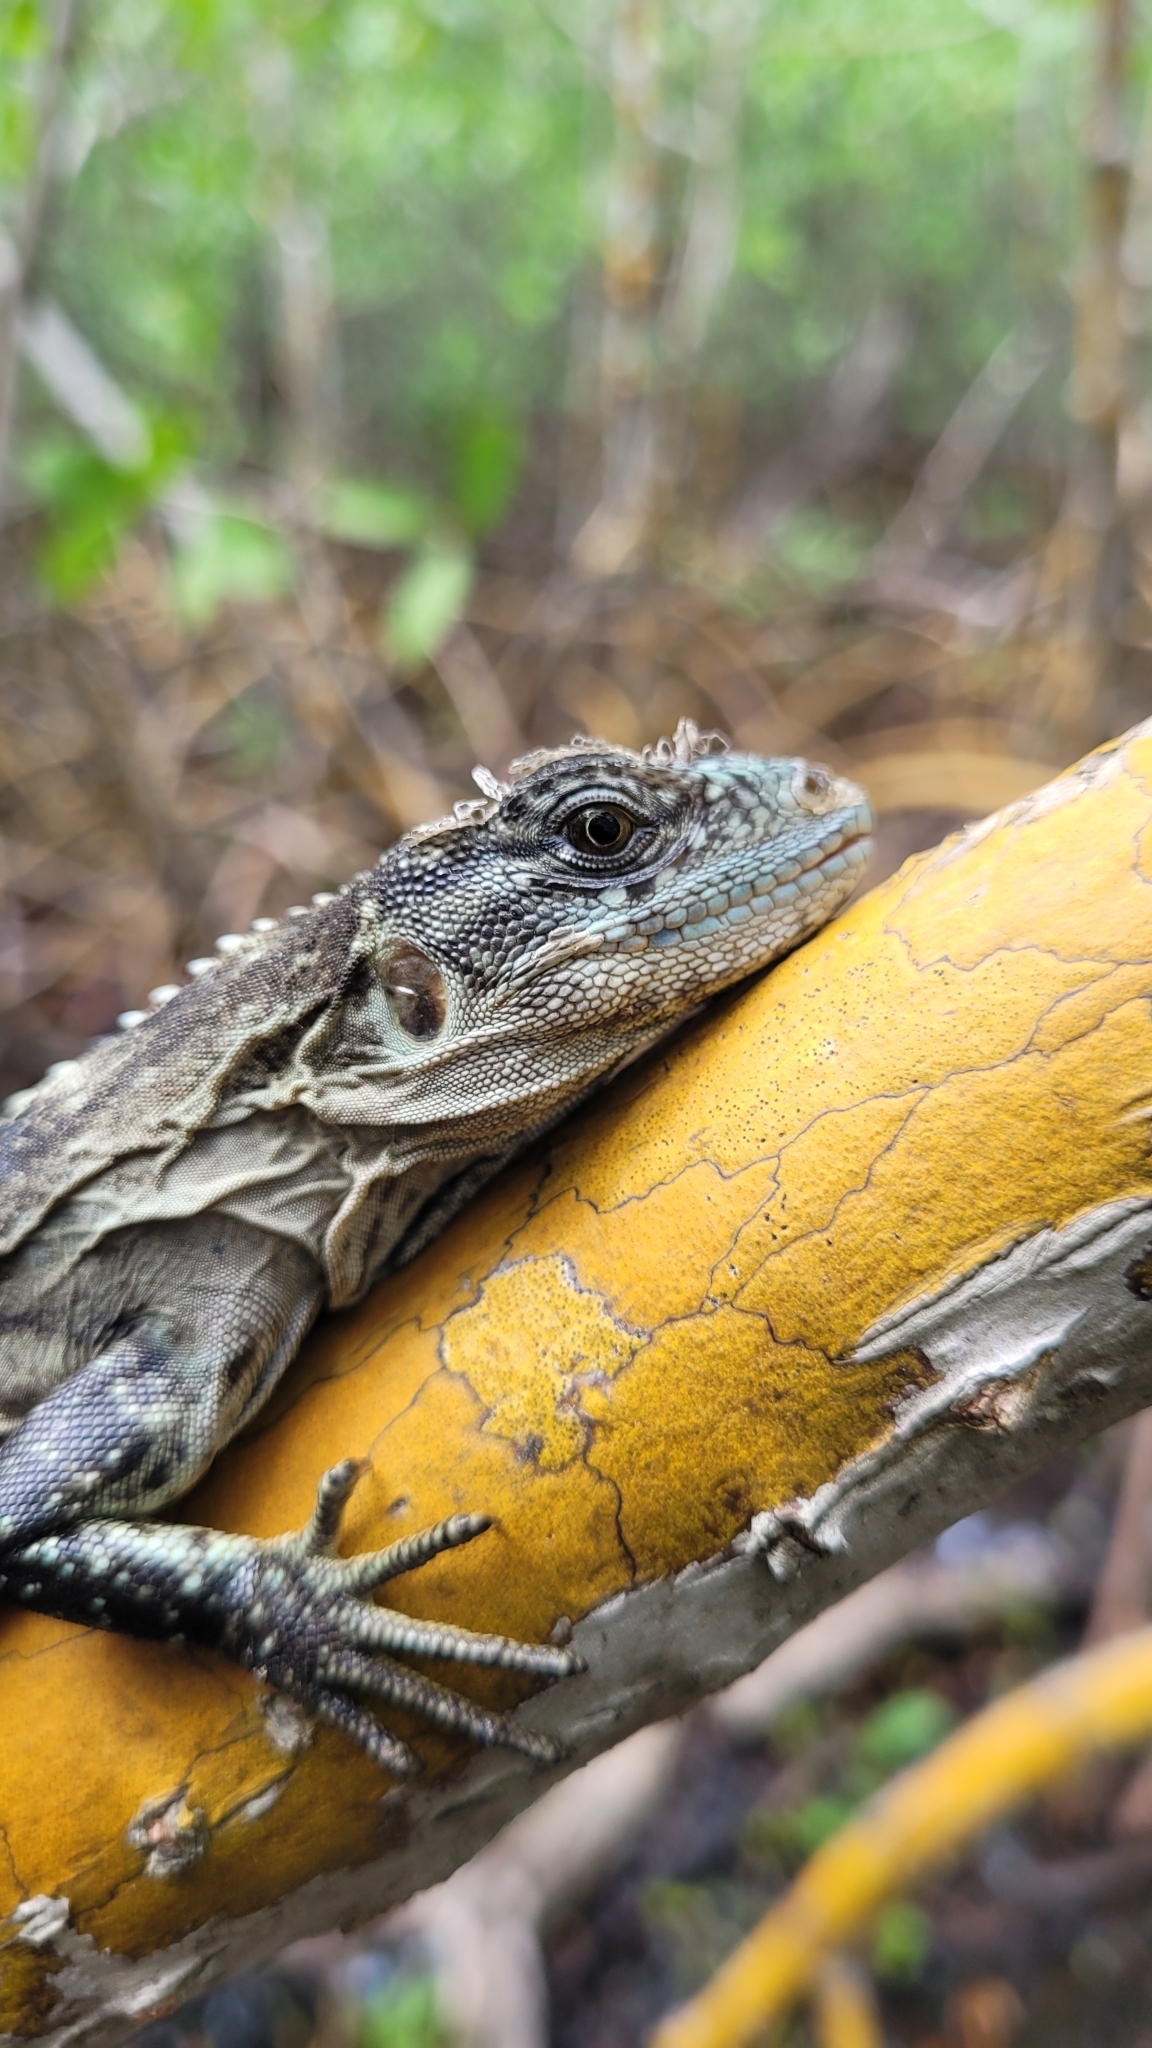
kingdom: Animalia
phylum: Chordata
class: Squamata
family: Iguanidae
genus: Ctenosaura
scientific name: Ctenosaura bakeri
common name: Utila spiny-tailed iguana
